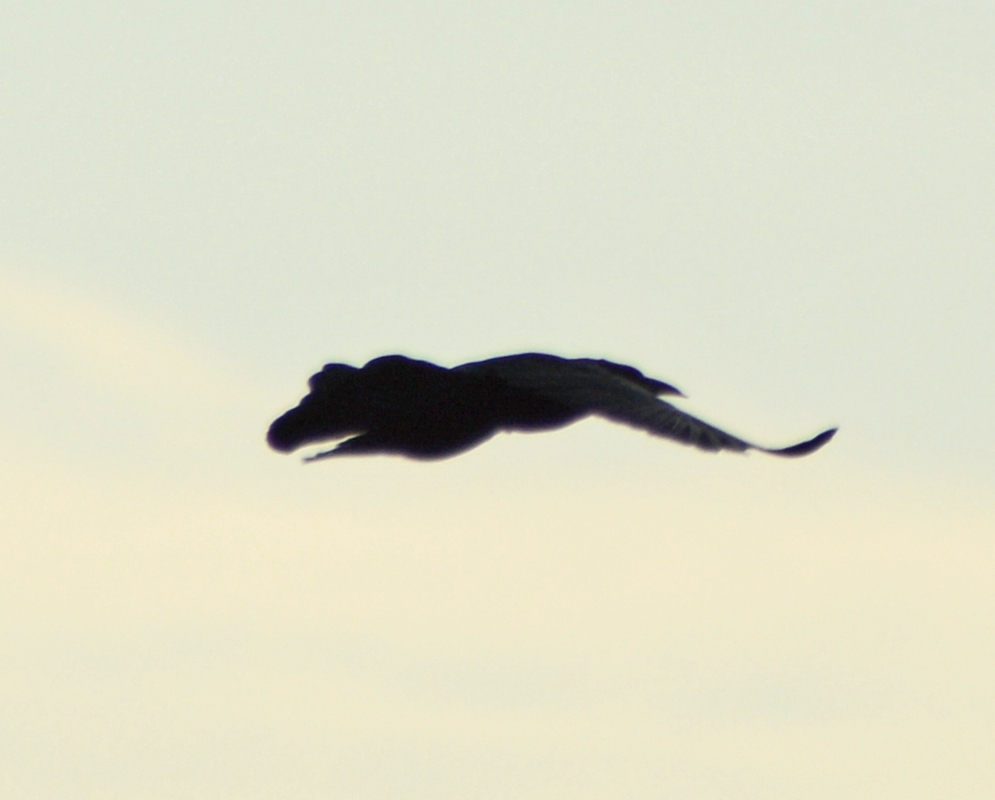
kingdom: Animalia
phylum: Chordata
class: Aves
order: Passeriformes
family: Icteridae
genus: Quiscalus
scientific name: Quiscalus mexicanus
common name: Great-tailed grackle
